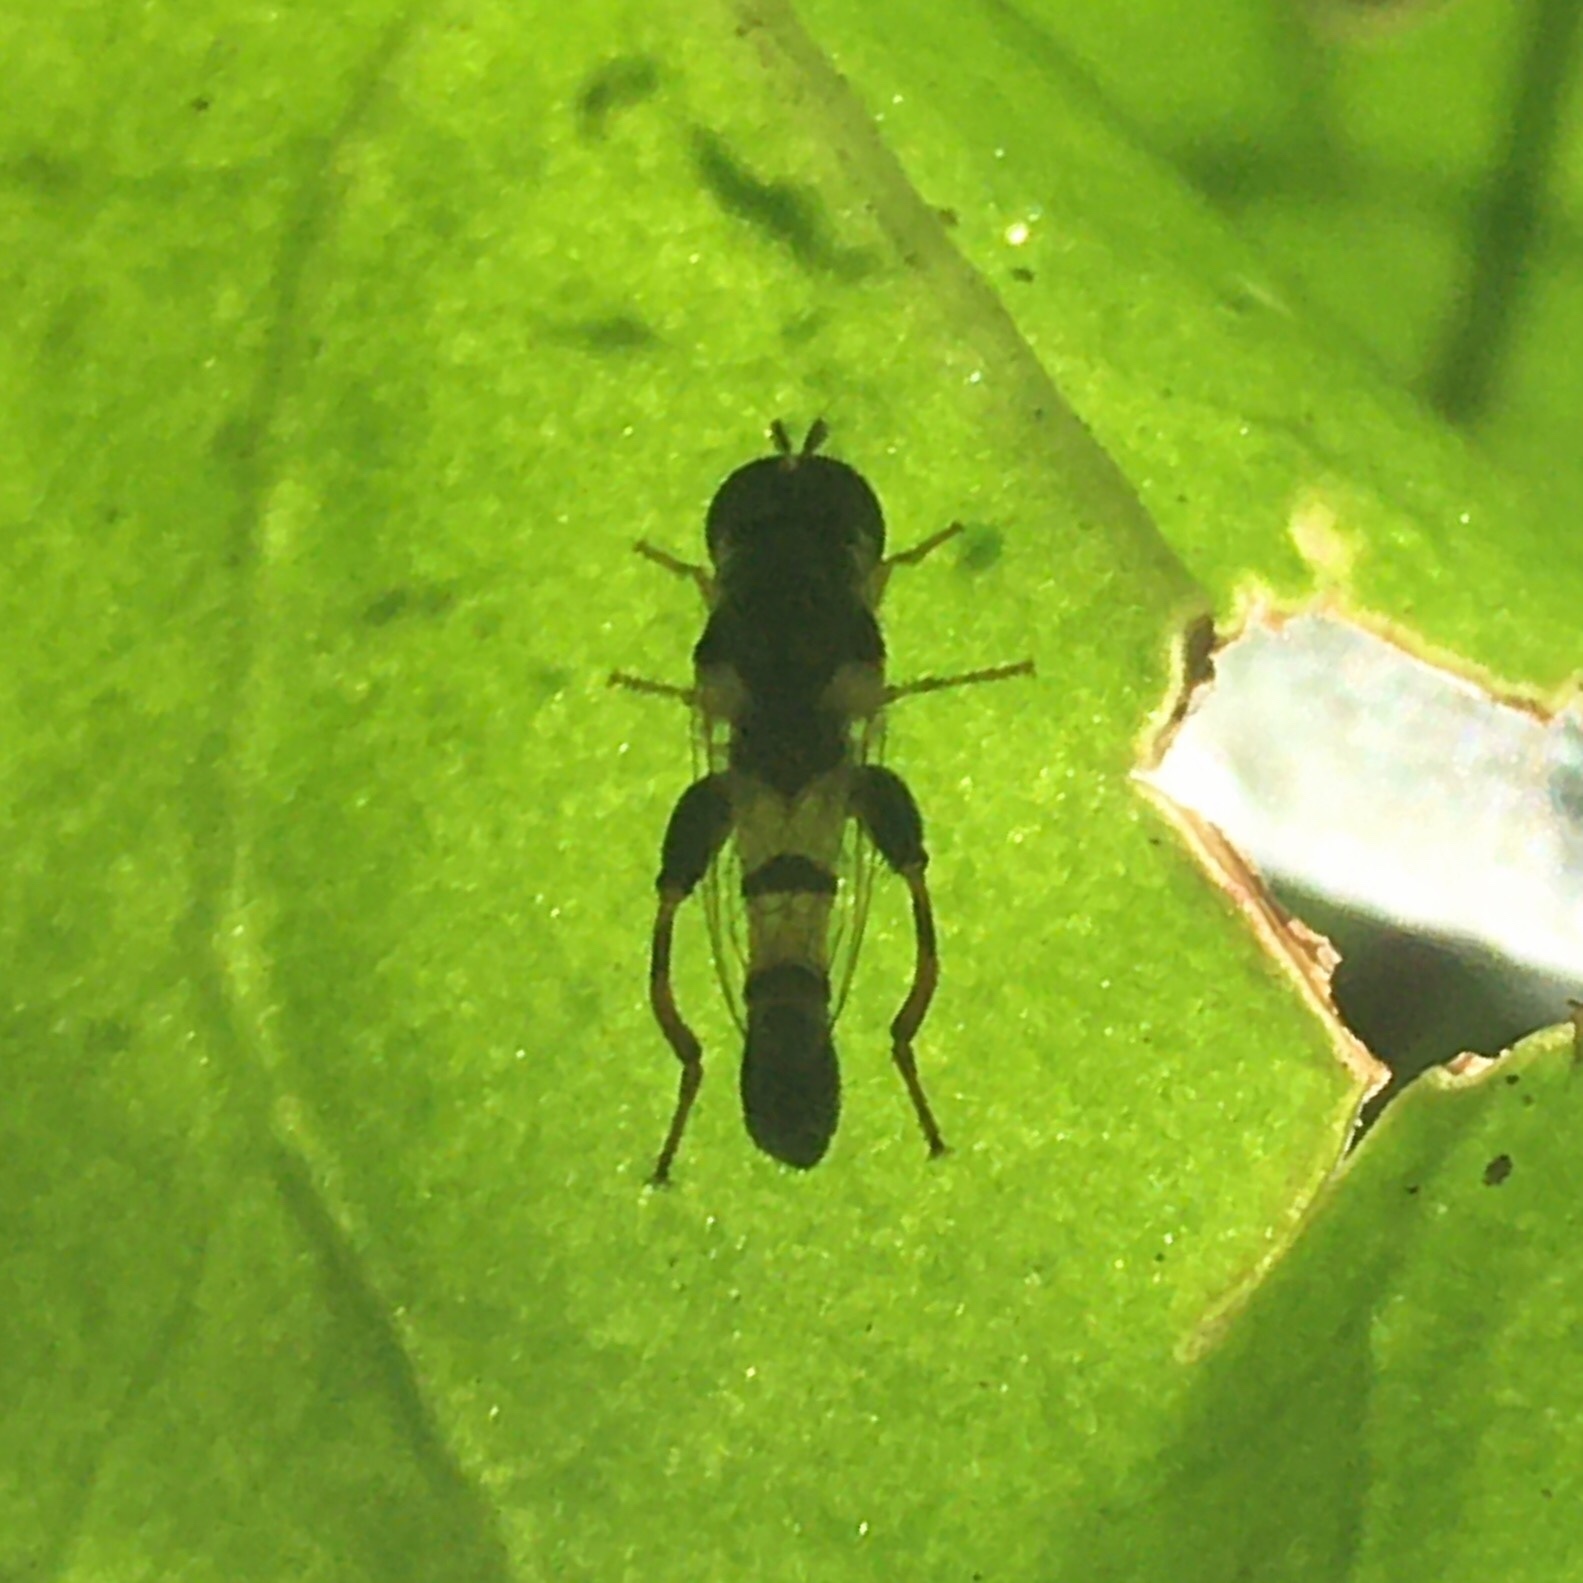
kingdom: Animalia
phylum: Arthropoda
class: Insecta
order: Diptera
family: Syrphidae
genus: Syritta
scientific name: Syritta flaviventris
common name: Syrphid fly
